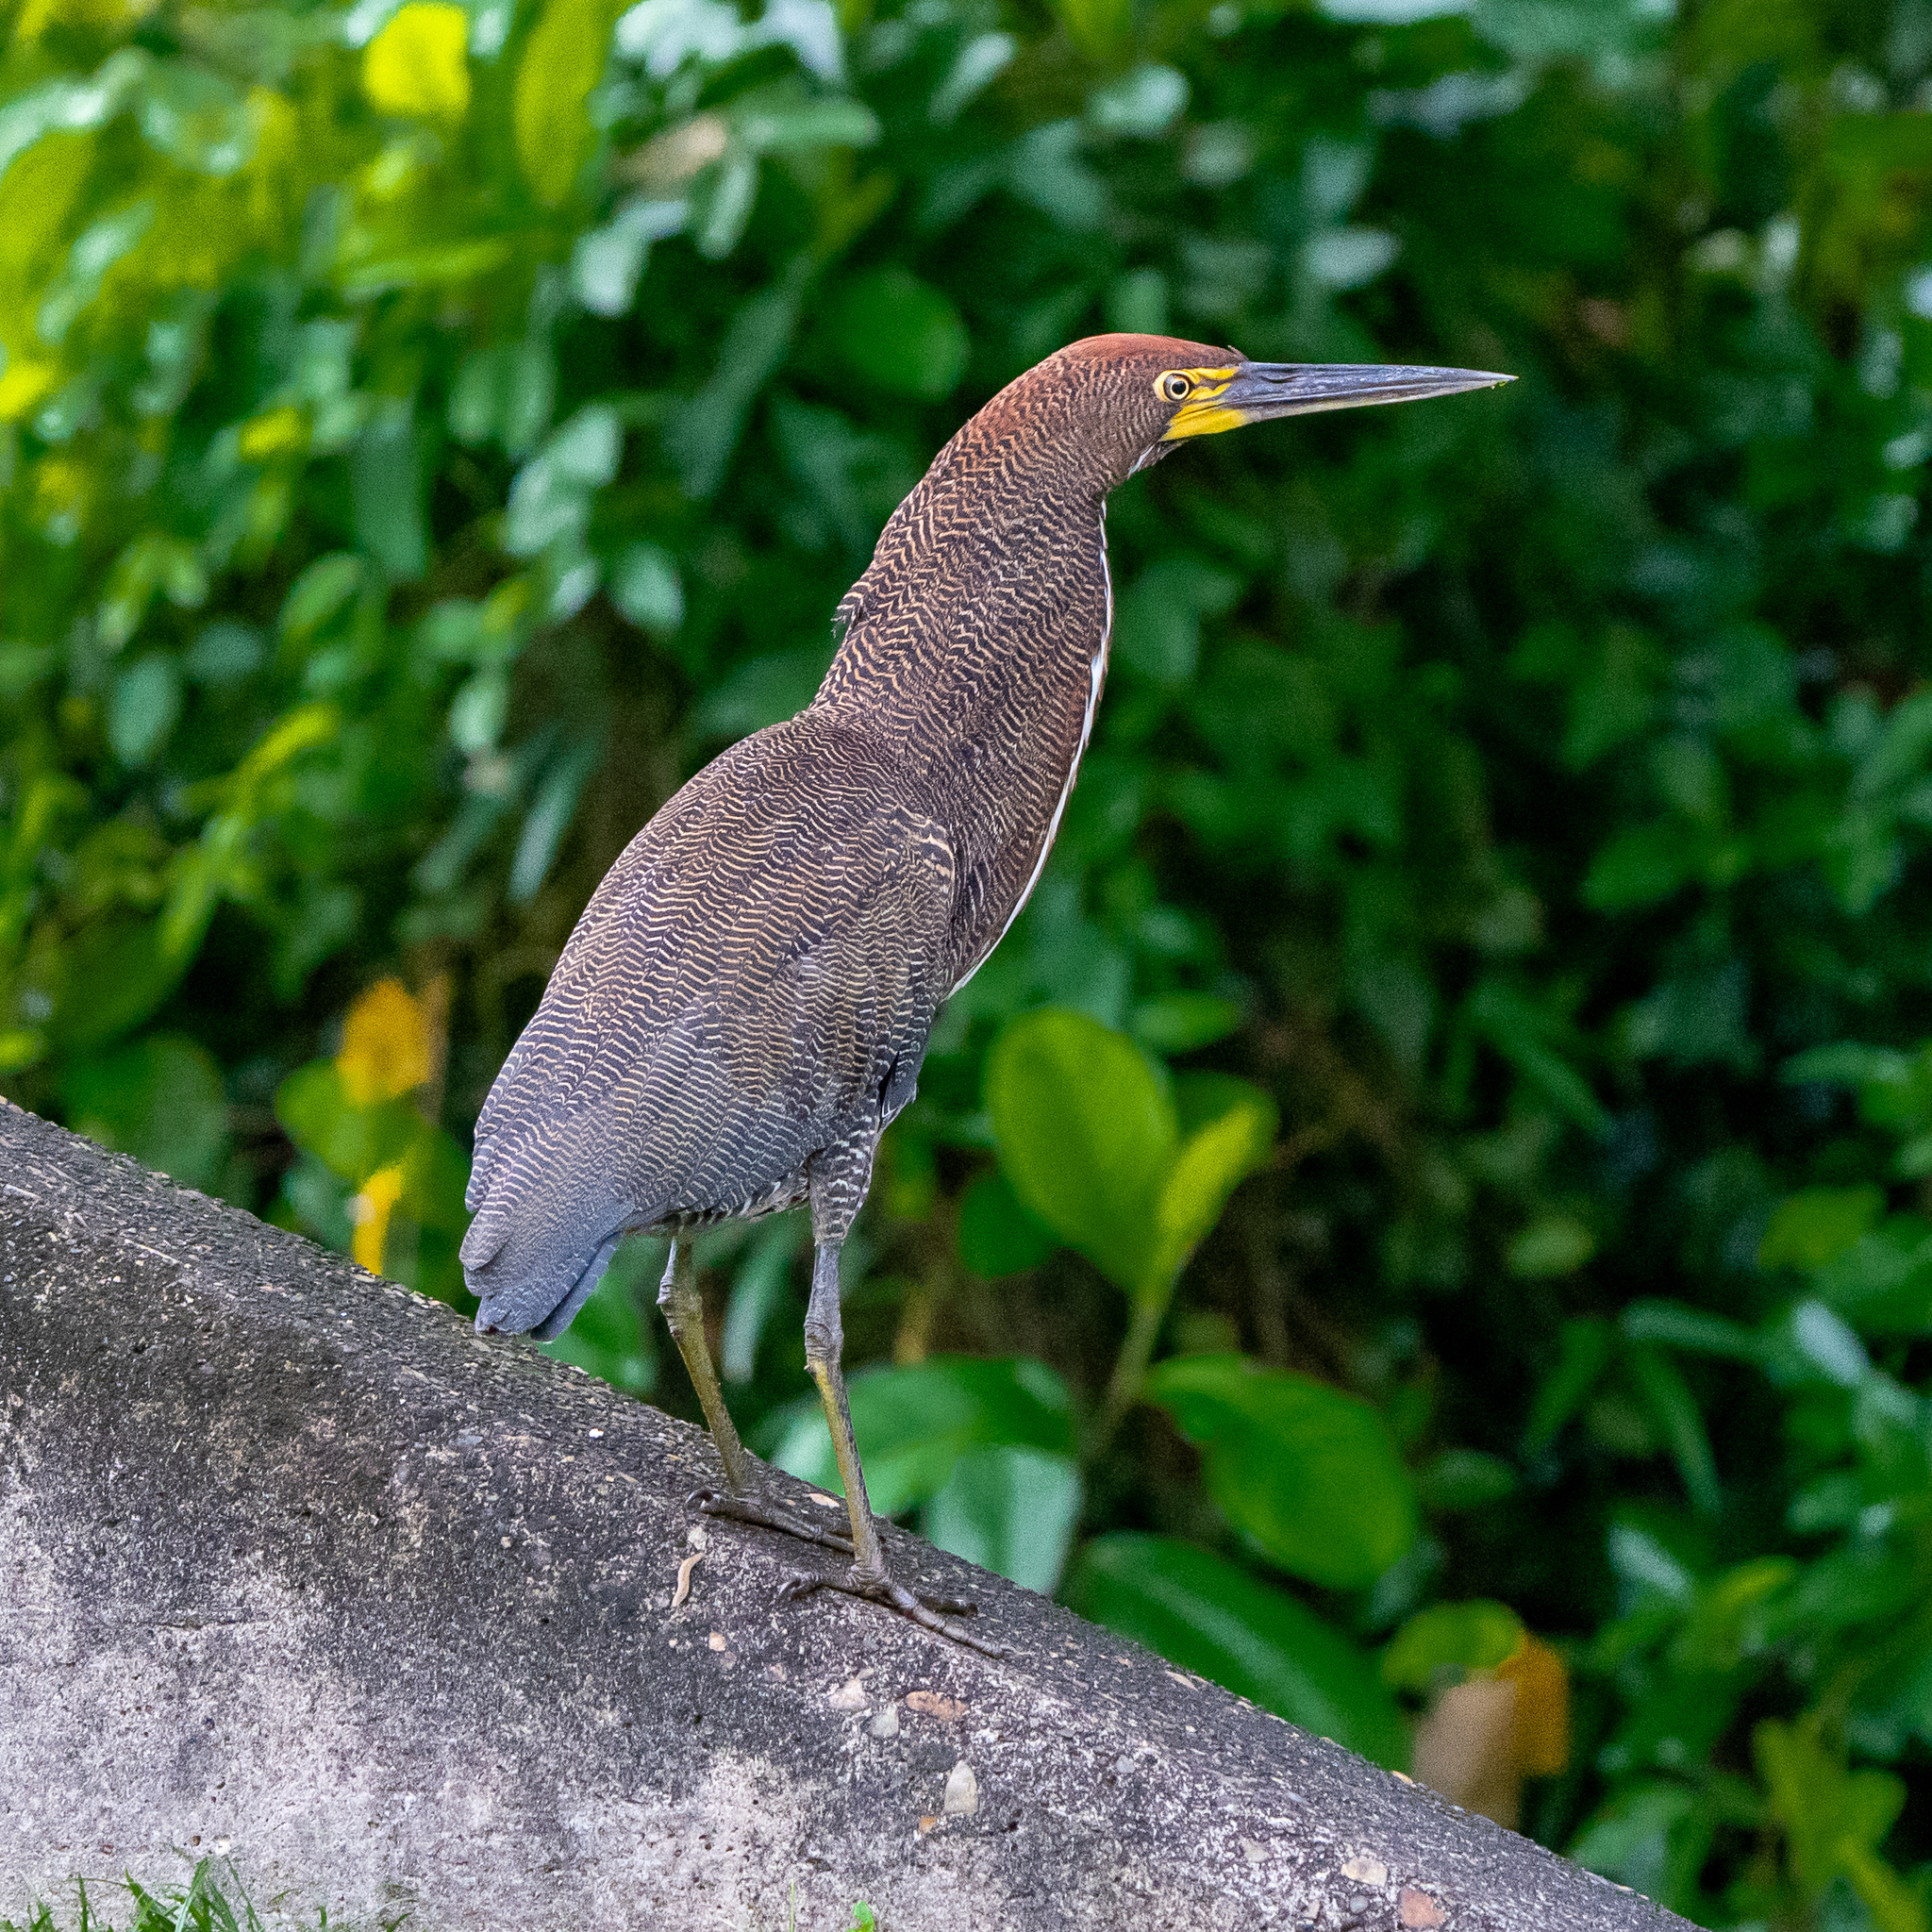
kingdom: Animalia
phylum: Chordata
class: Aves
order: Pelecaniformes
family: Ardeidae
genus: Tigrisoma
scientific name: Tigrisoma lineatum
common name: Rufescent tiger-heron
